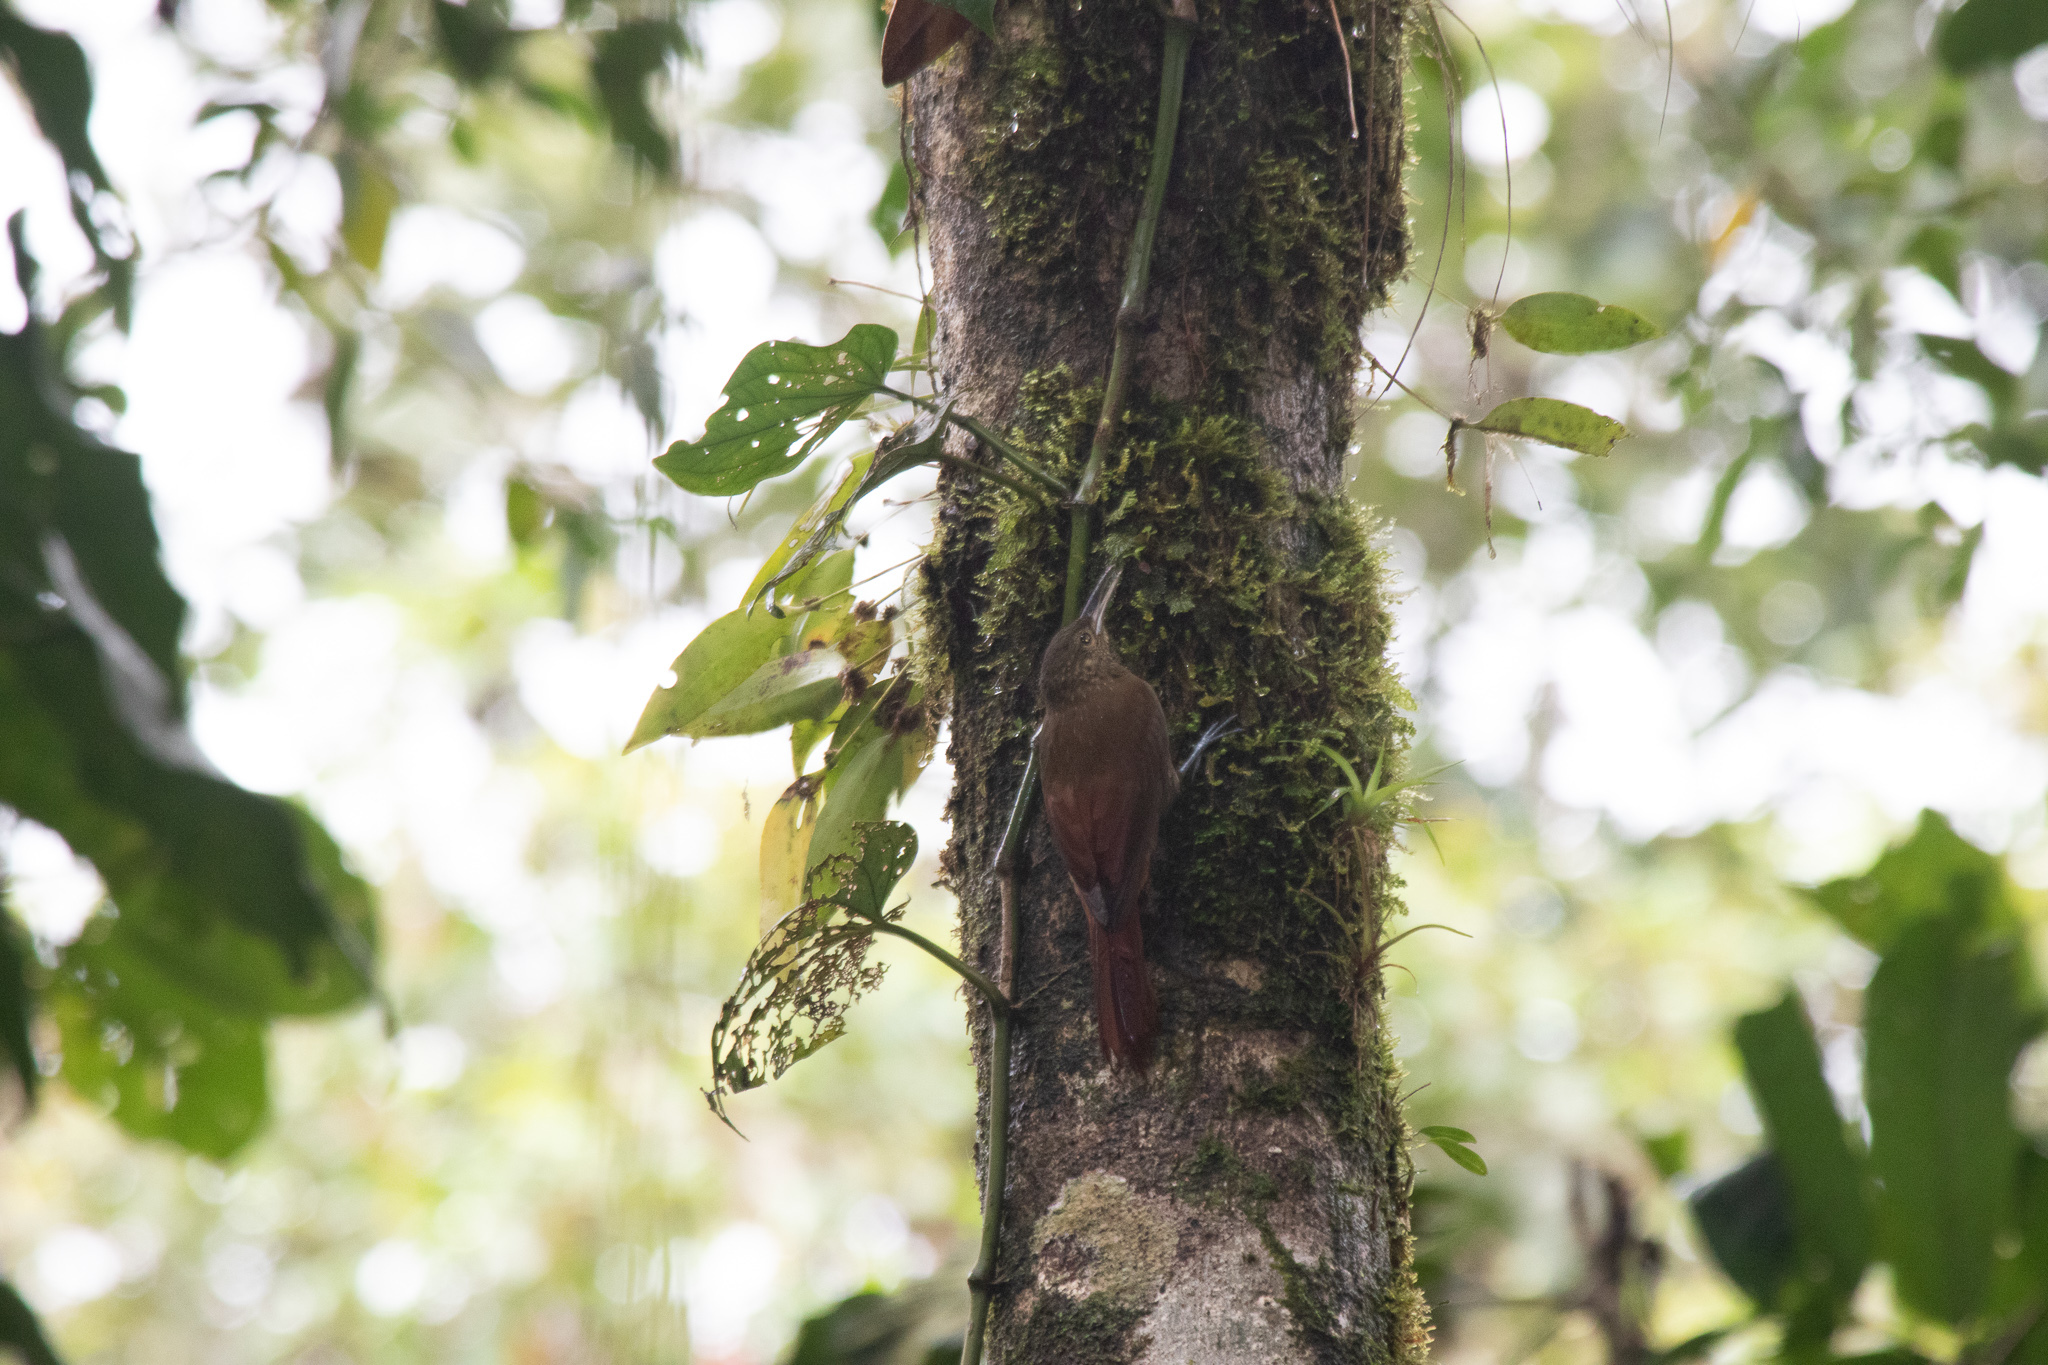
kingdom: Animalia
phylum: Chordata
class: Aves
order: Passeriformes
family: Furnariidae
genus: Xiphorhynchus
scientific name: Xiphorhynchus erythropygius
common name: Spotted woodcreeper
